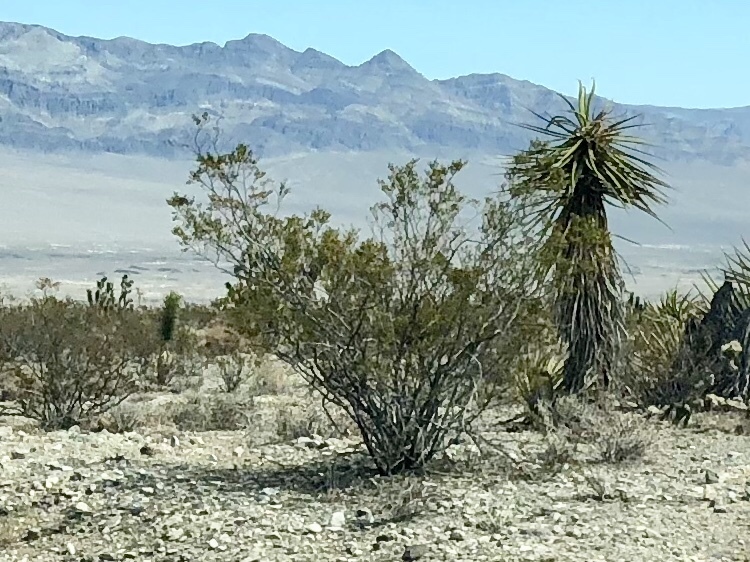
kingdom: Plantae
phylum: Tracheophyta
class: Magnoliopsida
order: Zygophyllales
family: Zygophyllaceae
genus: Larrea
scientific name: Larrea tridentata
